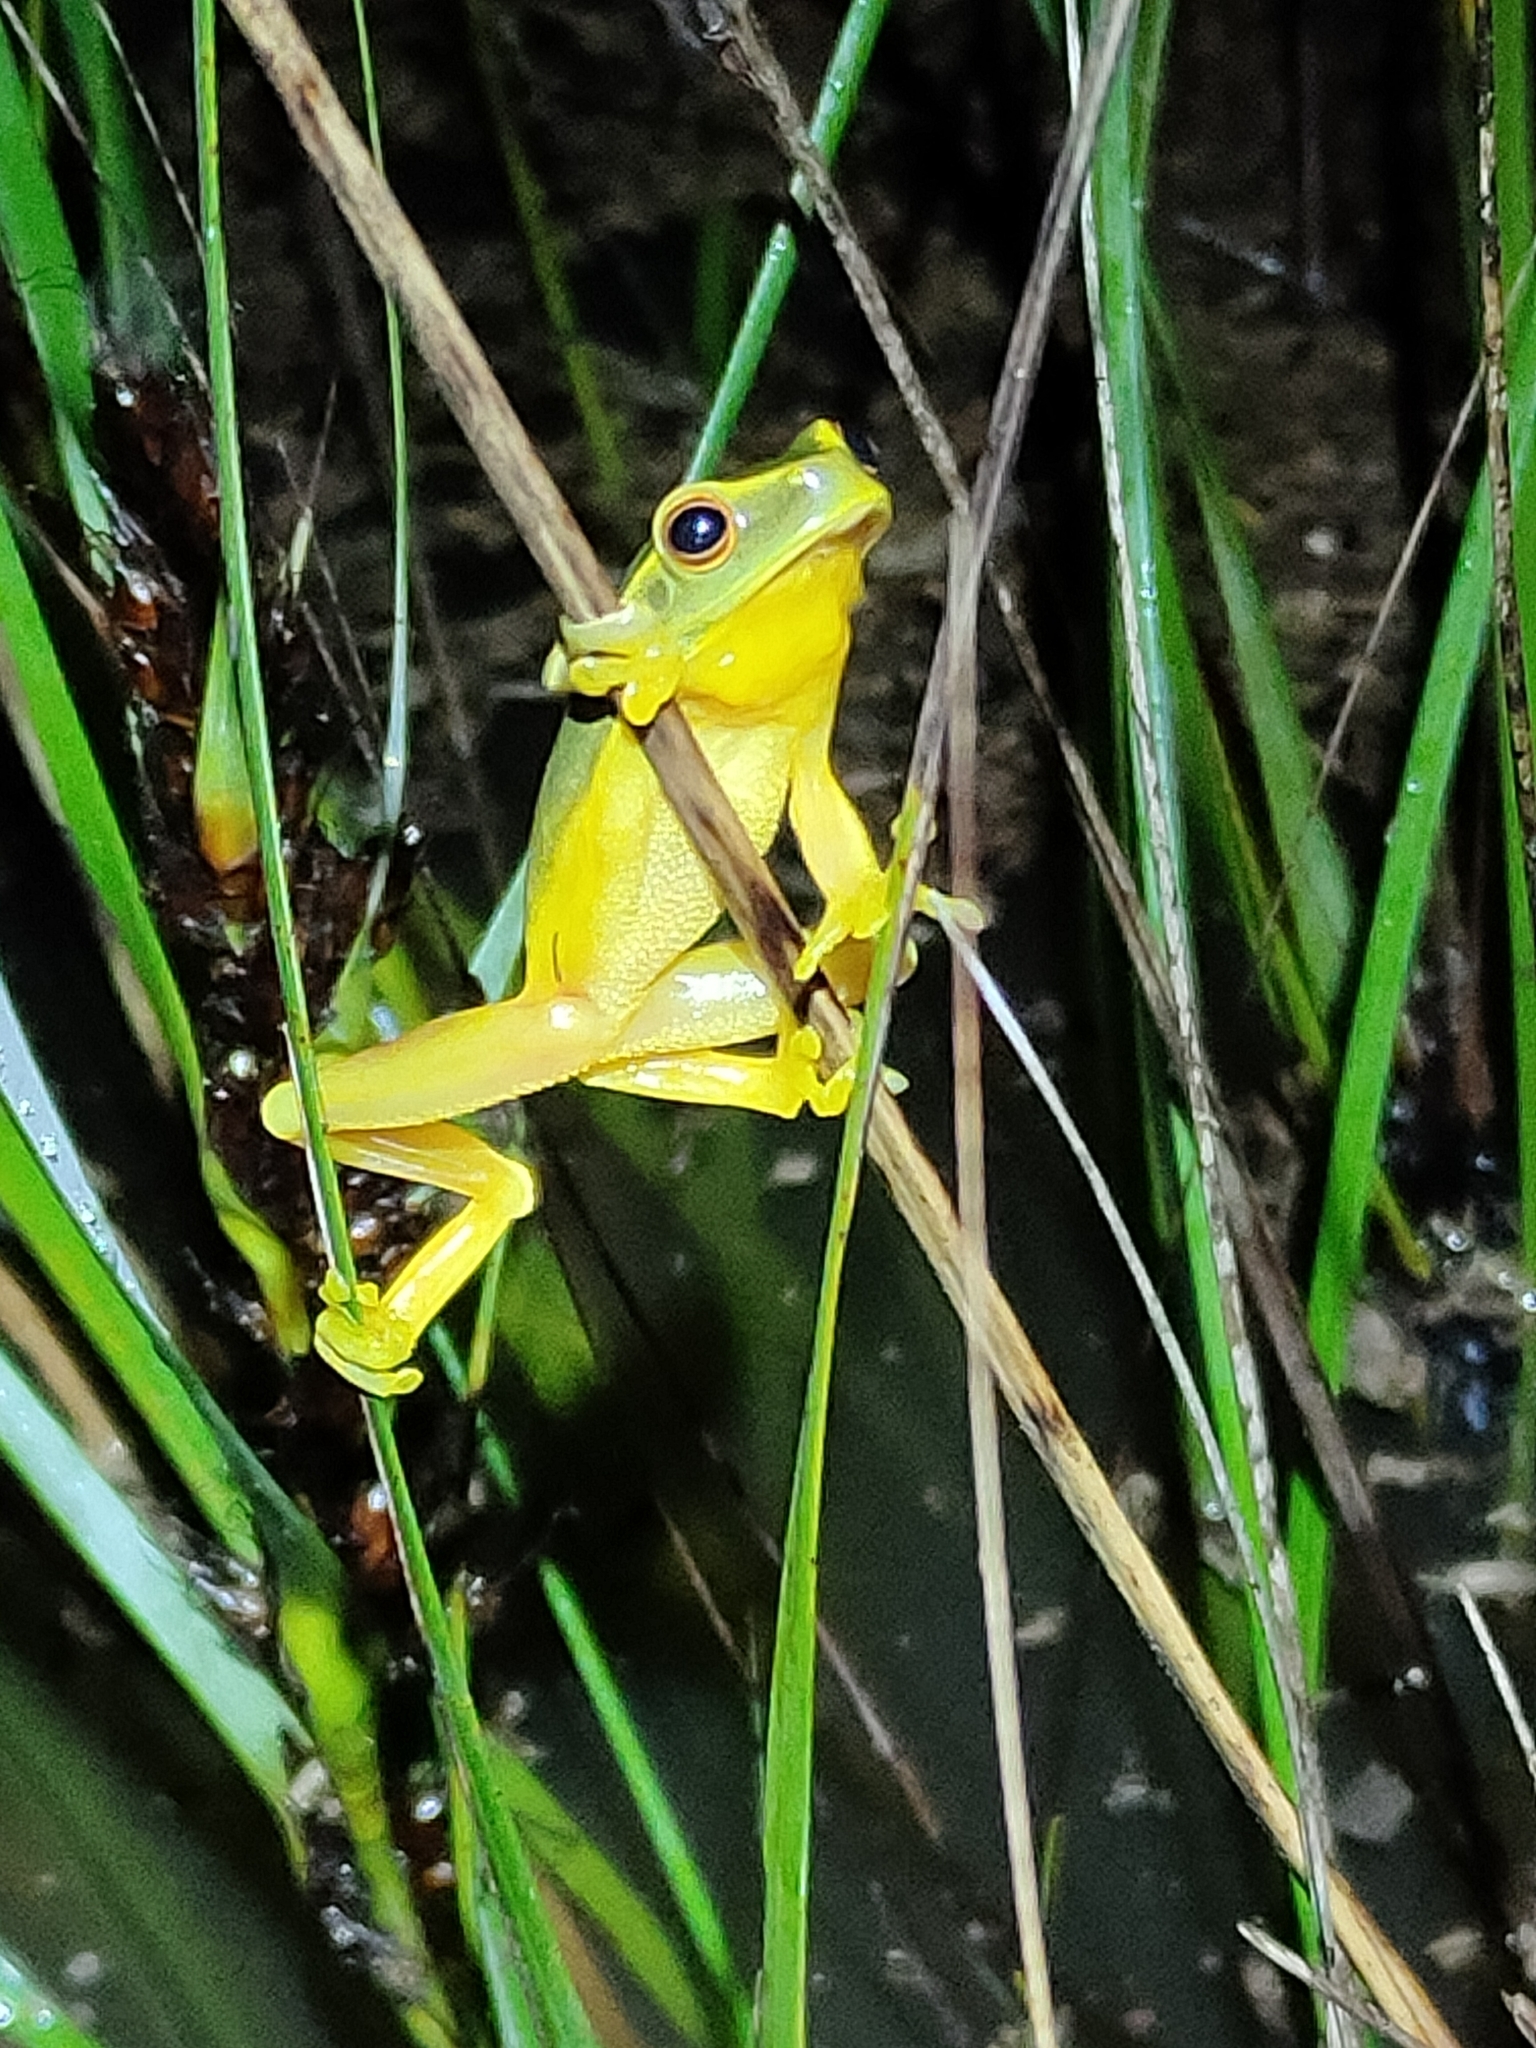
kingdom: Animalia
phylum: Chordata
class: Amphibia
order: Anura
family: Pelodryadidae
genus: Ranoidea
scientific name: Ranoidea gracilenta
